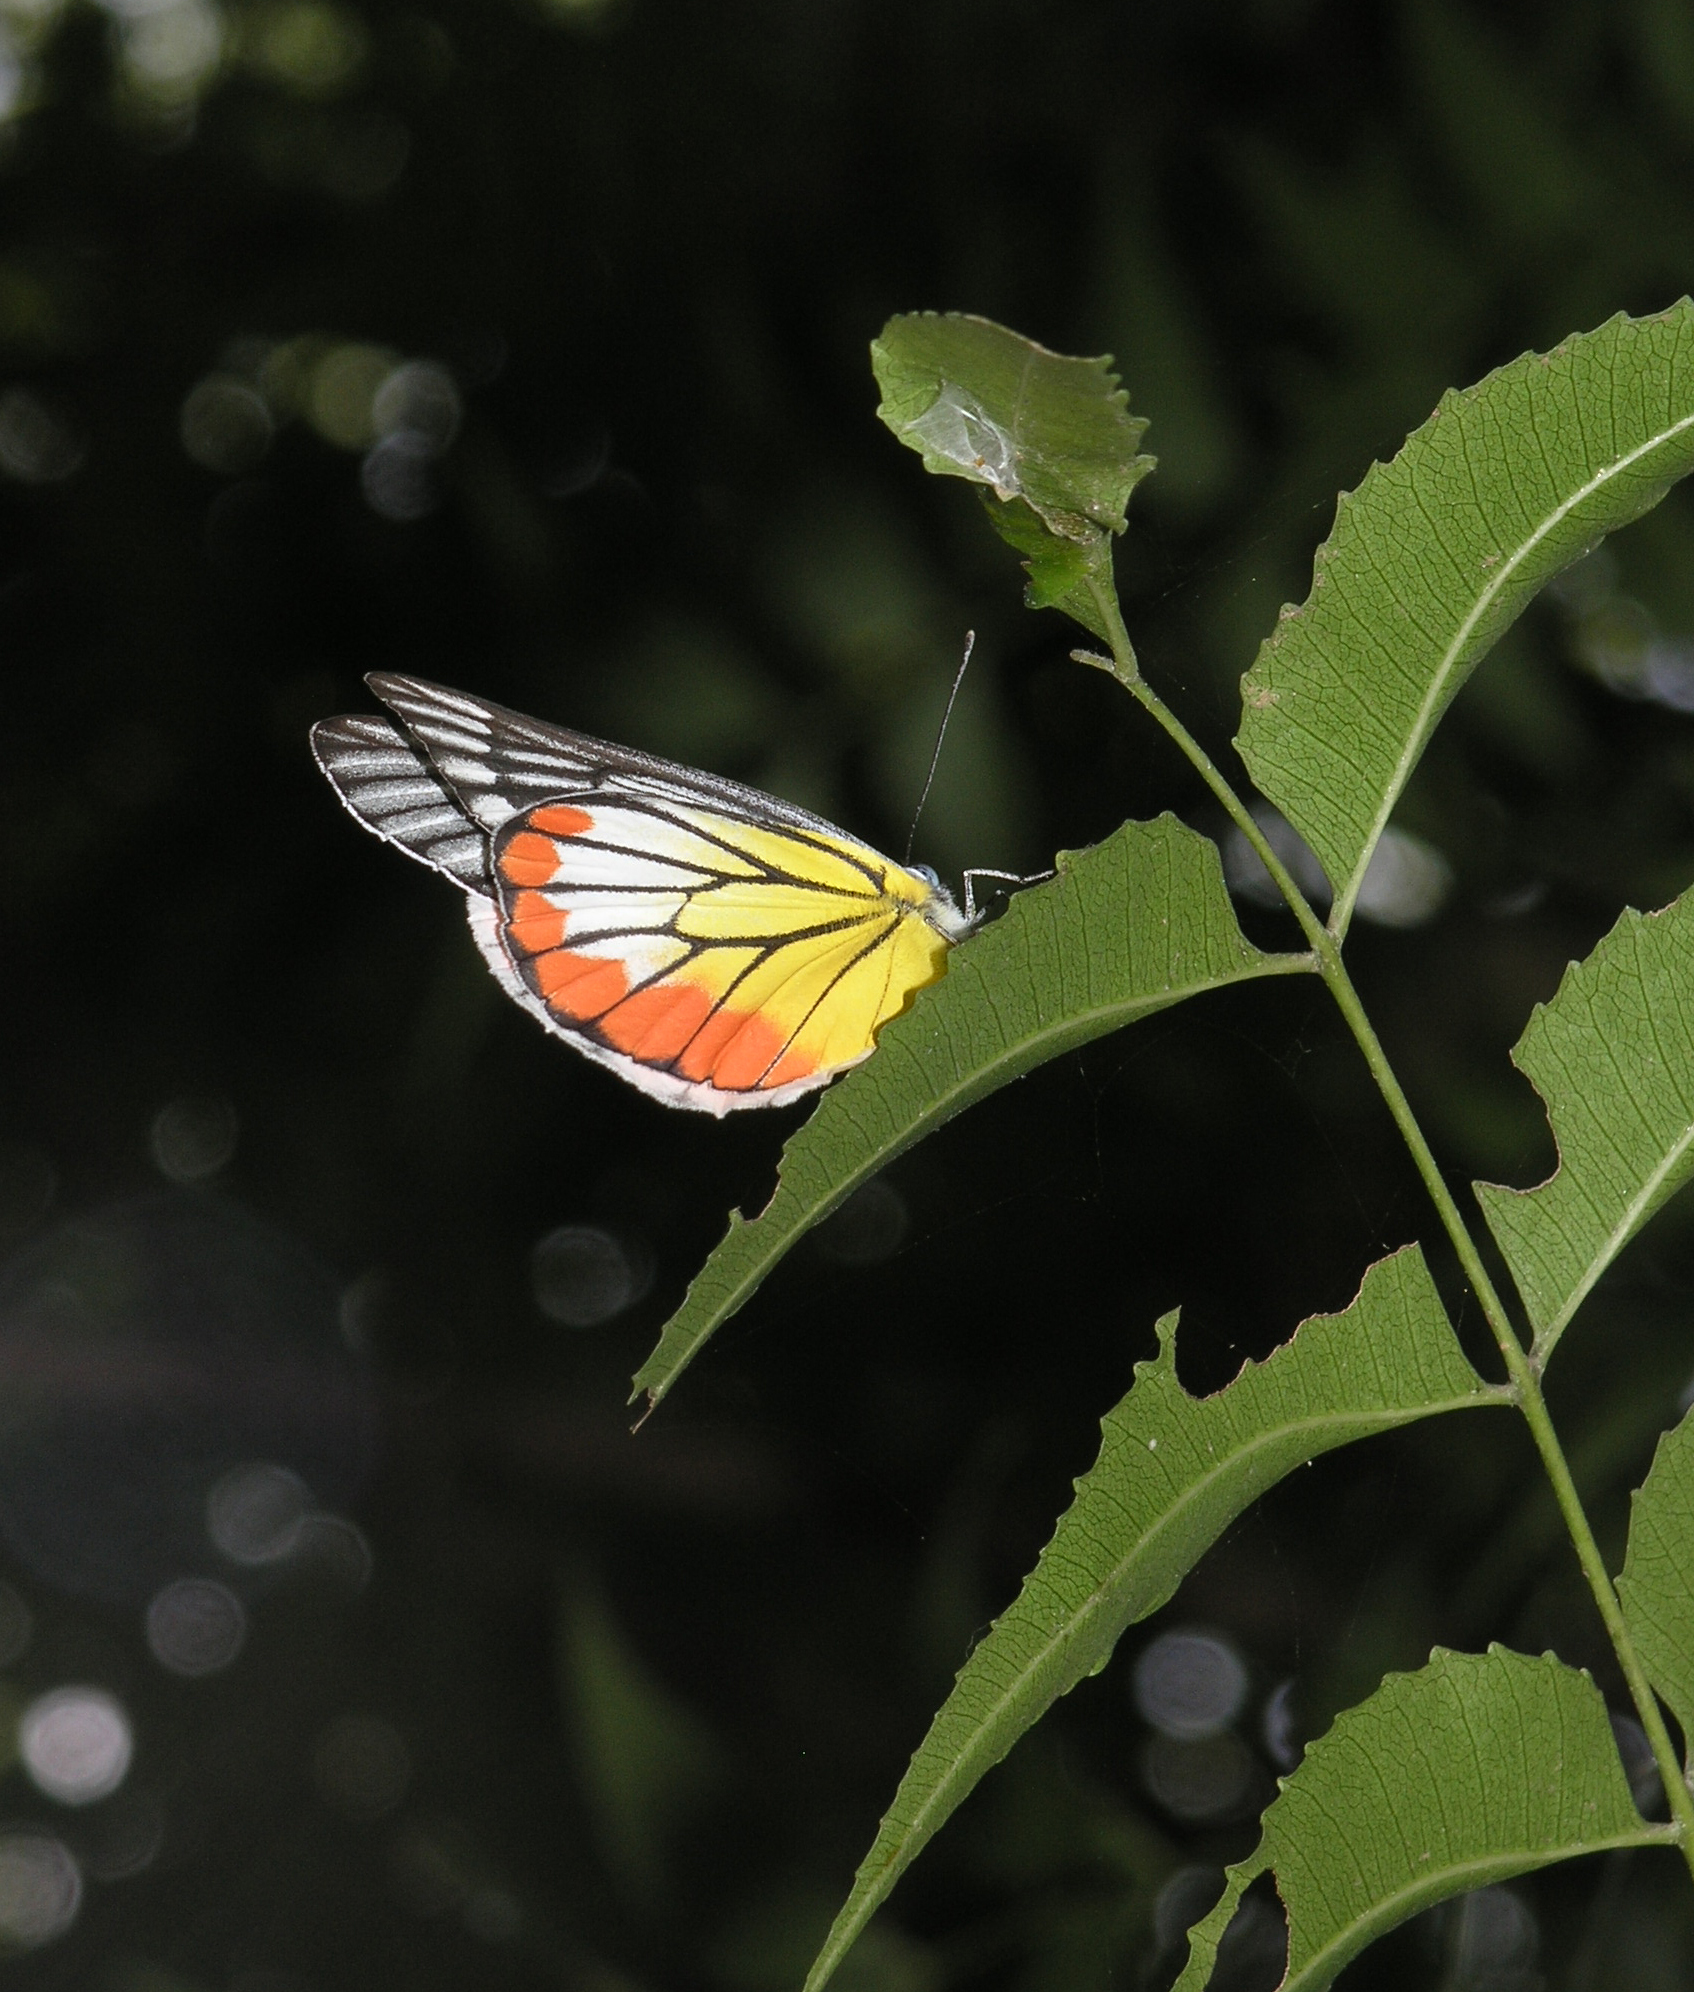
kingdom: Animalia
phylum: Arthropoda
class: Insecta
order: Lepidoptera
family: Pieridae
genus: Delias
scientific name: Delias hyparete
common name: Painted jezebel
